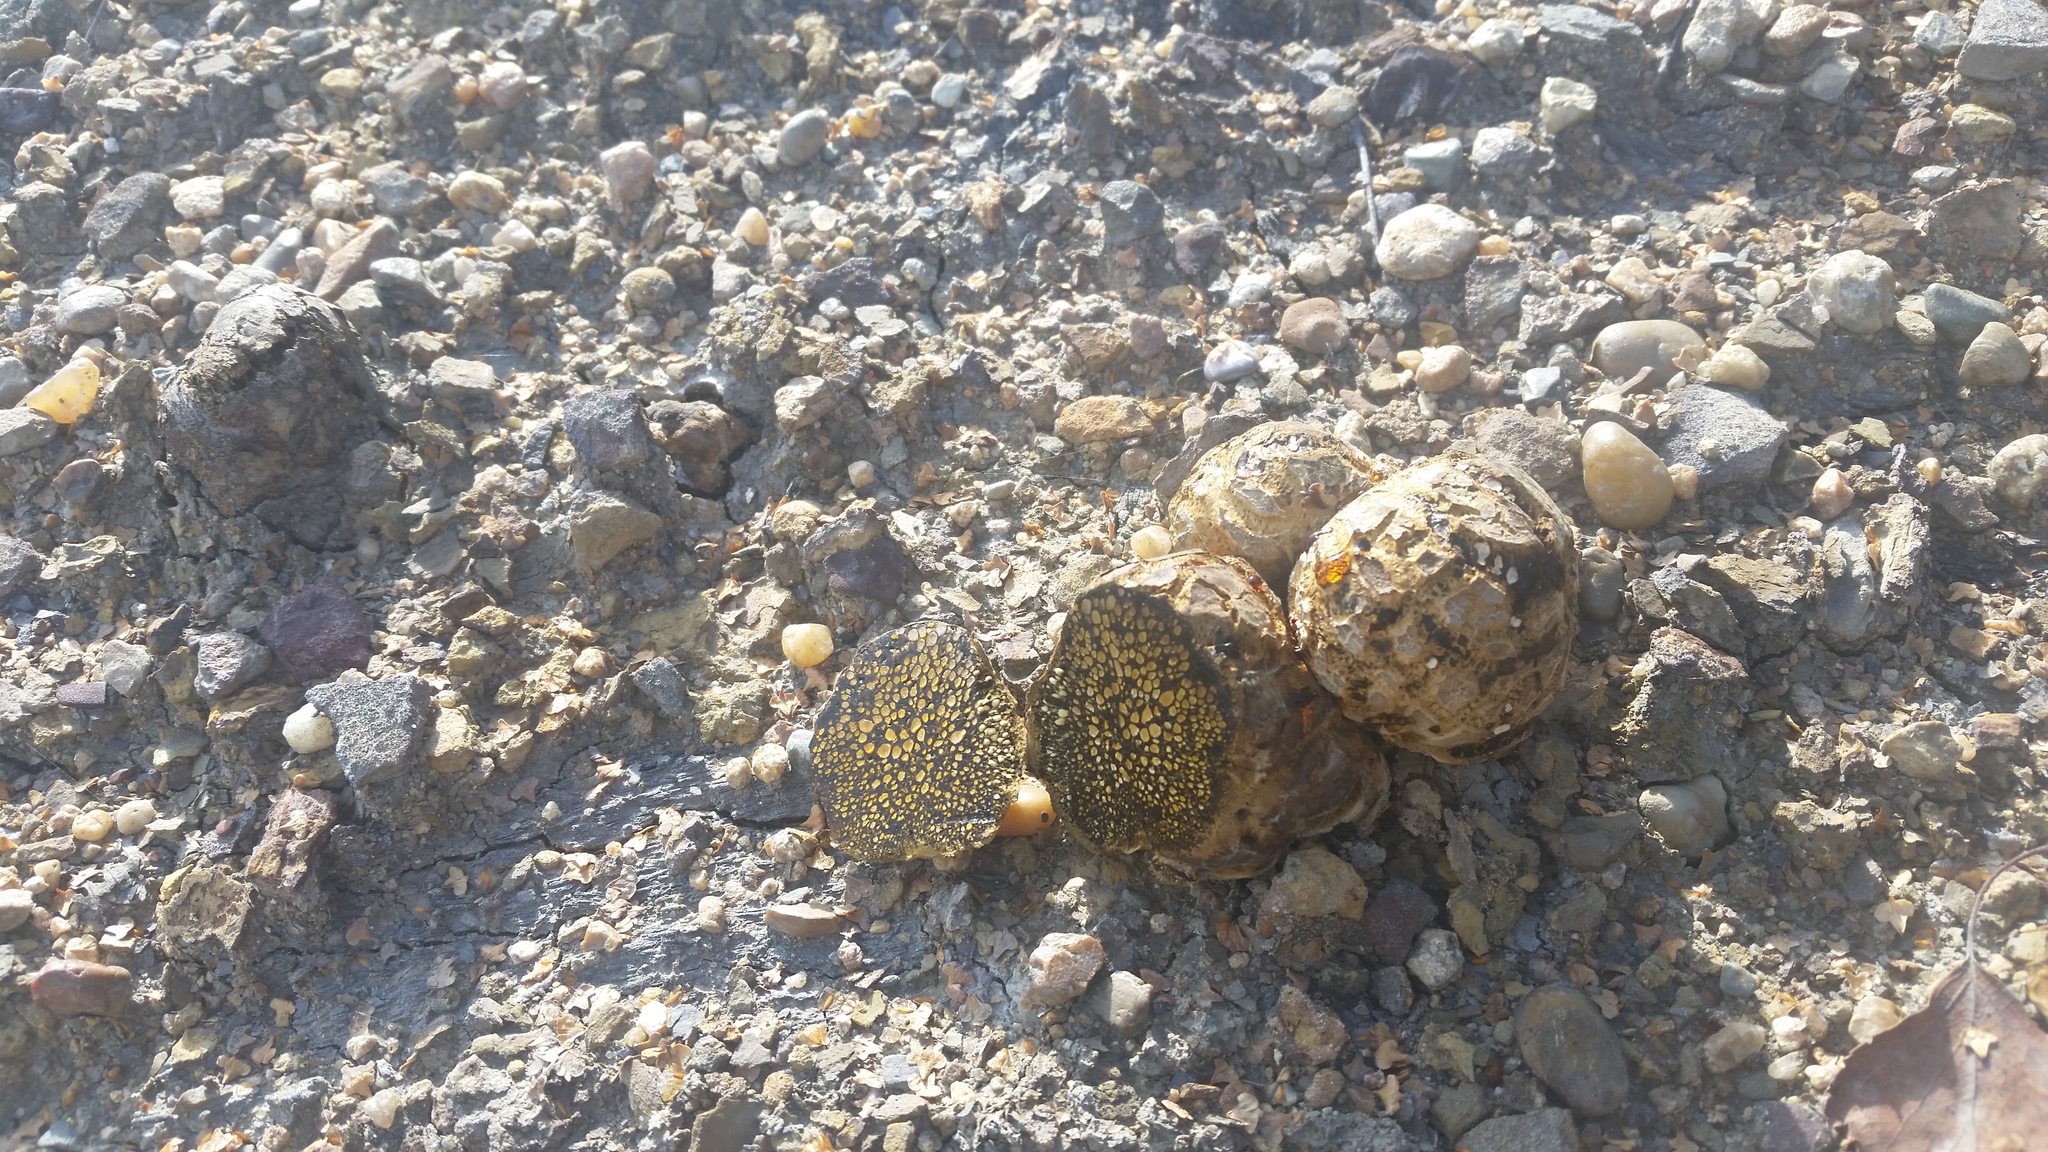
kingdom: Fungi
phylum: Basidiomycota
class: Agaricomycetes
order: Boletales
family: Sclerodermataceae
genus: Pisolithus
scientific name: Pisolithus tinctorius
